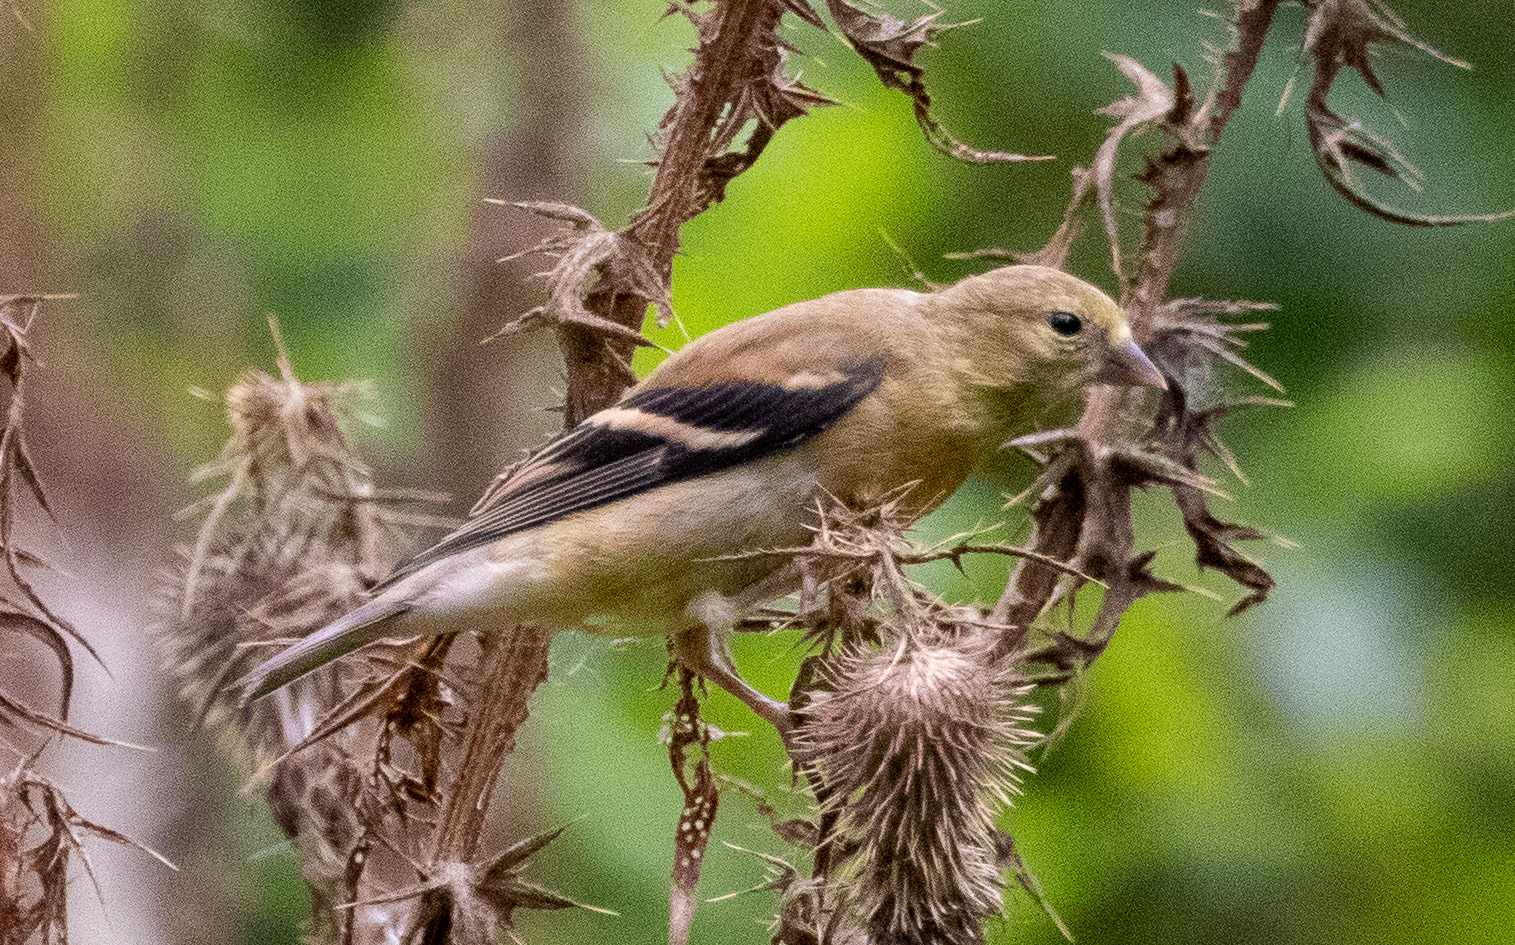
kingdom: Animalia
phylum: Chordata
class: Aves
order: Passeriformes
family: Fringillidae
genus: Spinus
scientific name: Spinus tristis
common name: American goldfinch
